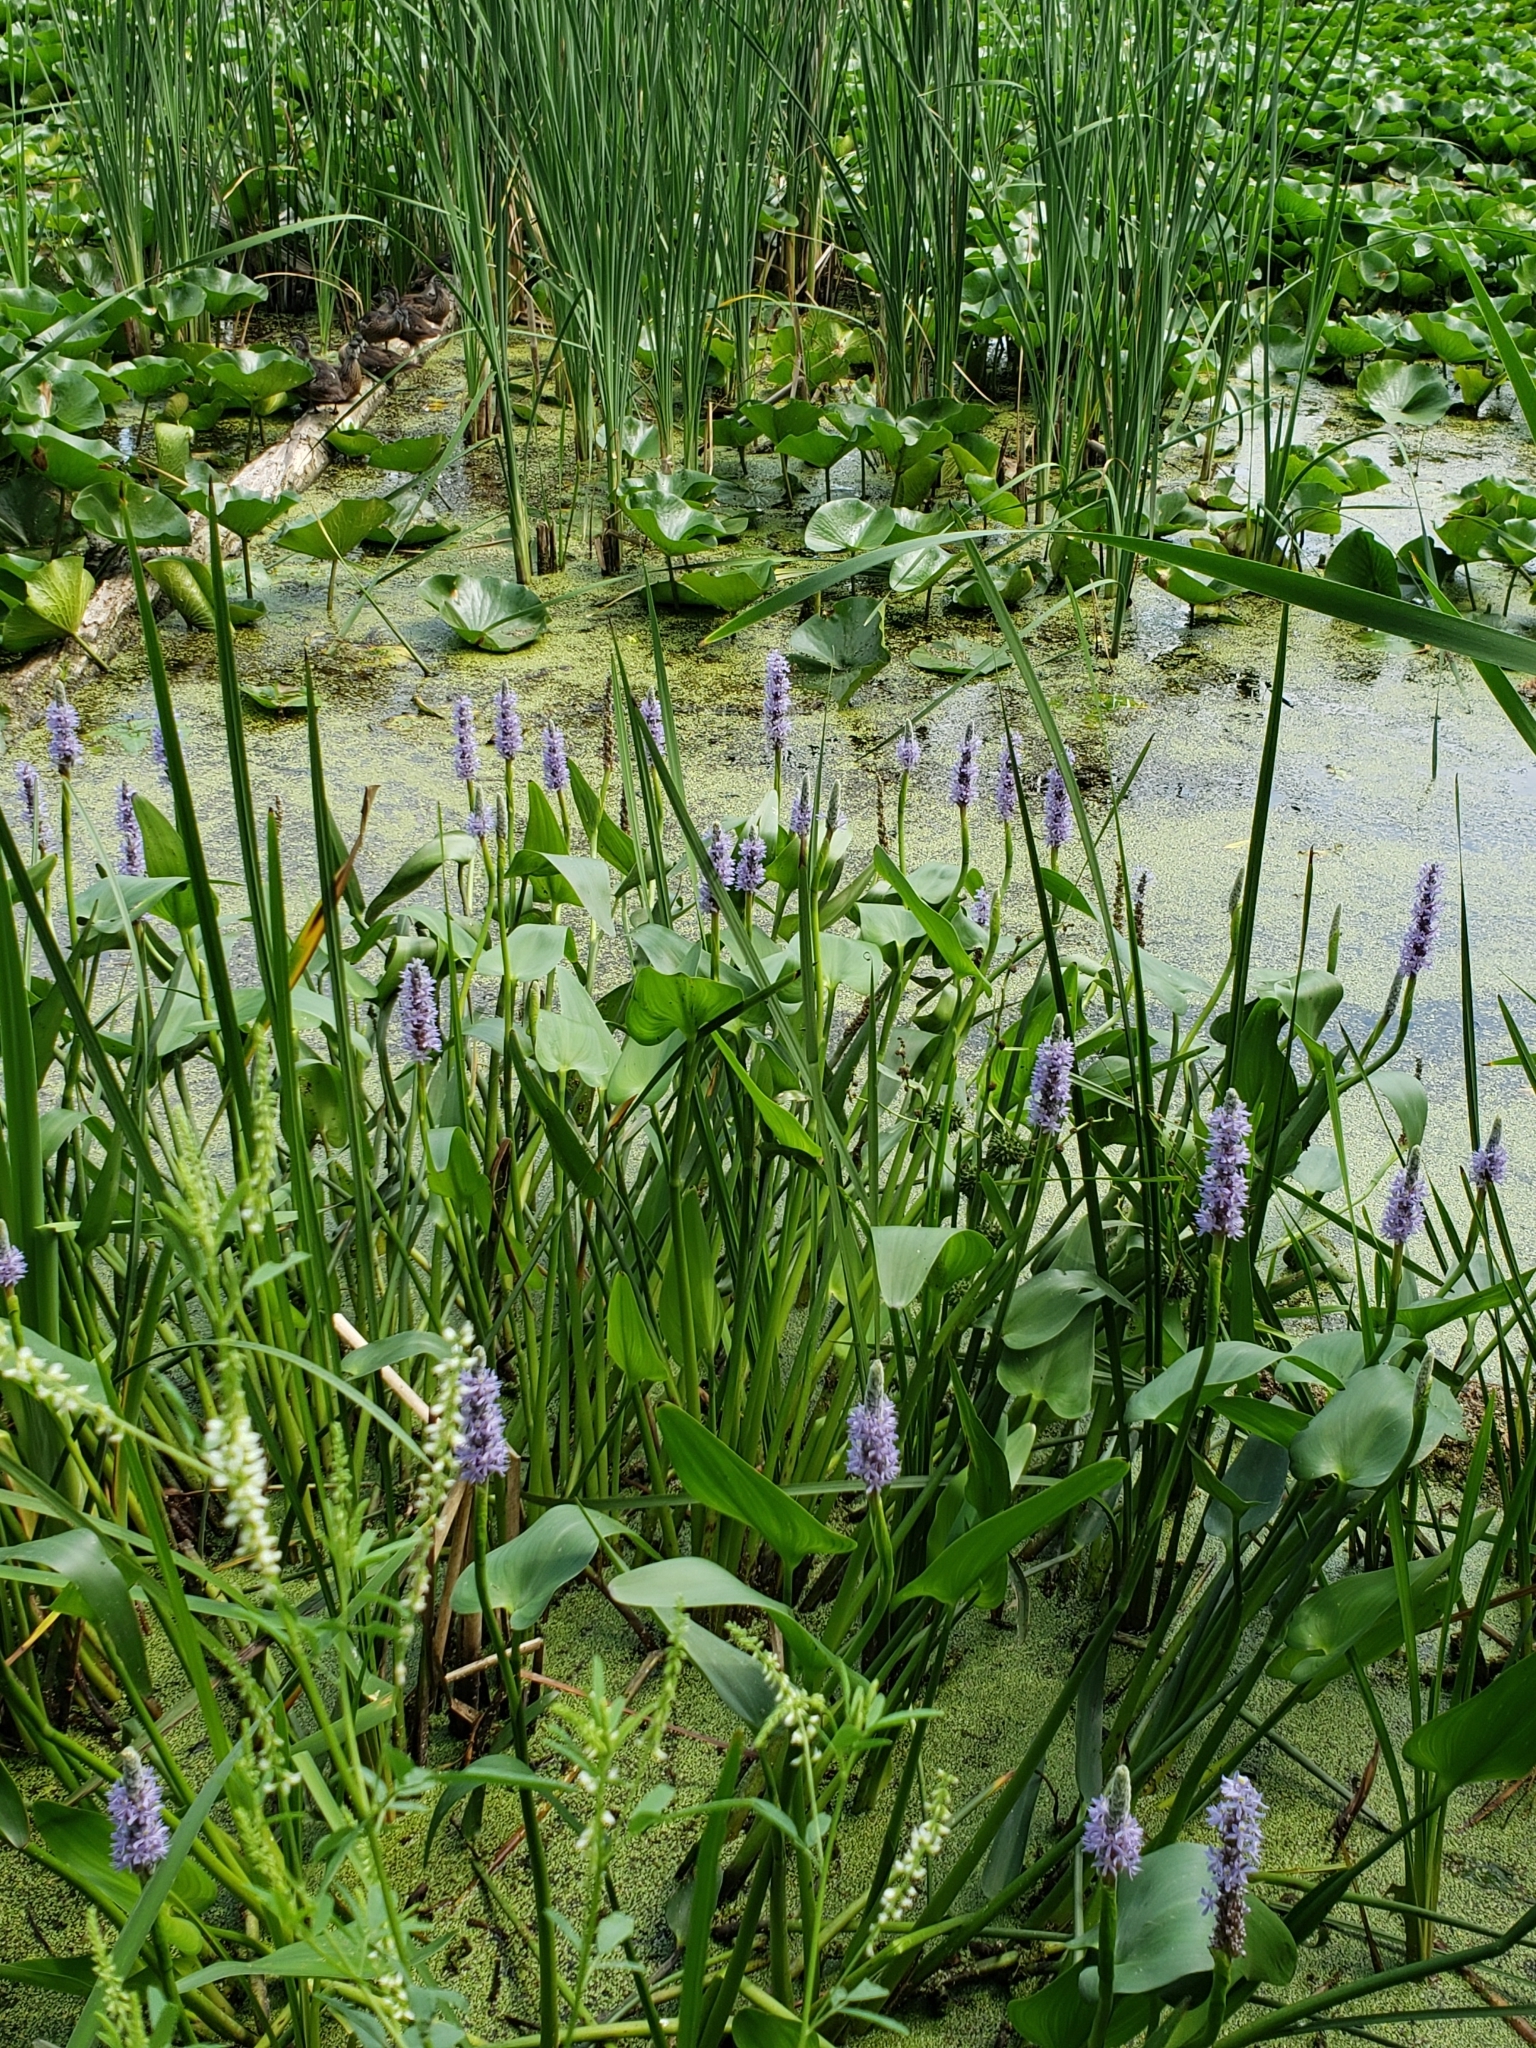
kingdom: Plantae
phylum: Tracheophyta
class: Liliopsida
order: Commelinales
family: Pontederiaceae
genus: Pontederia
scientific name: Pontederia cordata
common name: Pickerelweed
